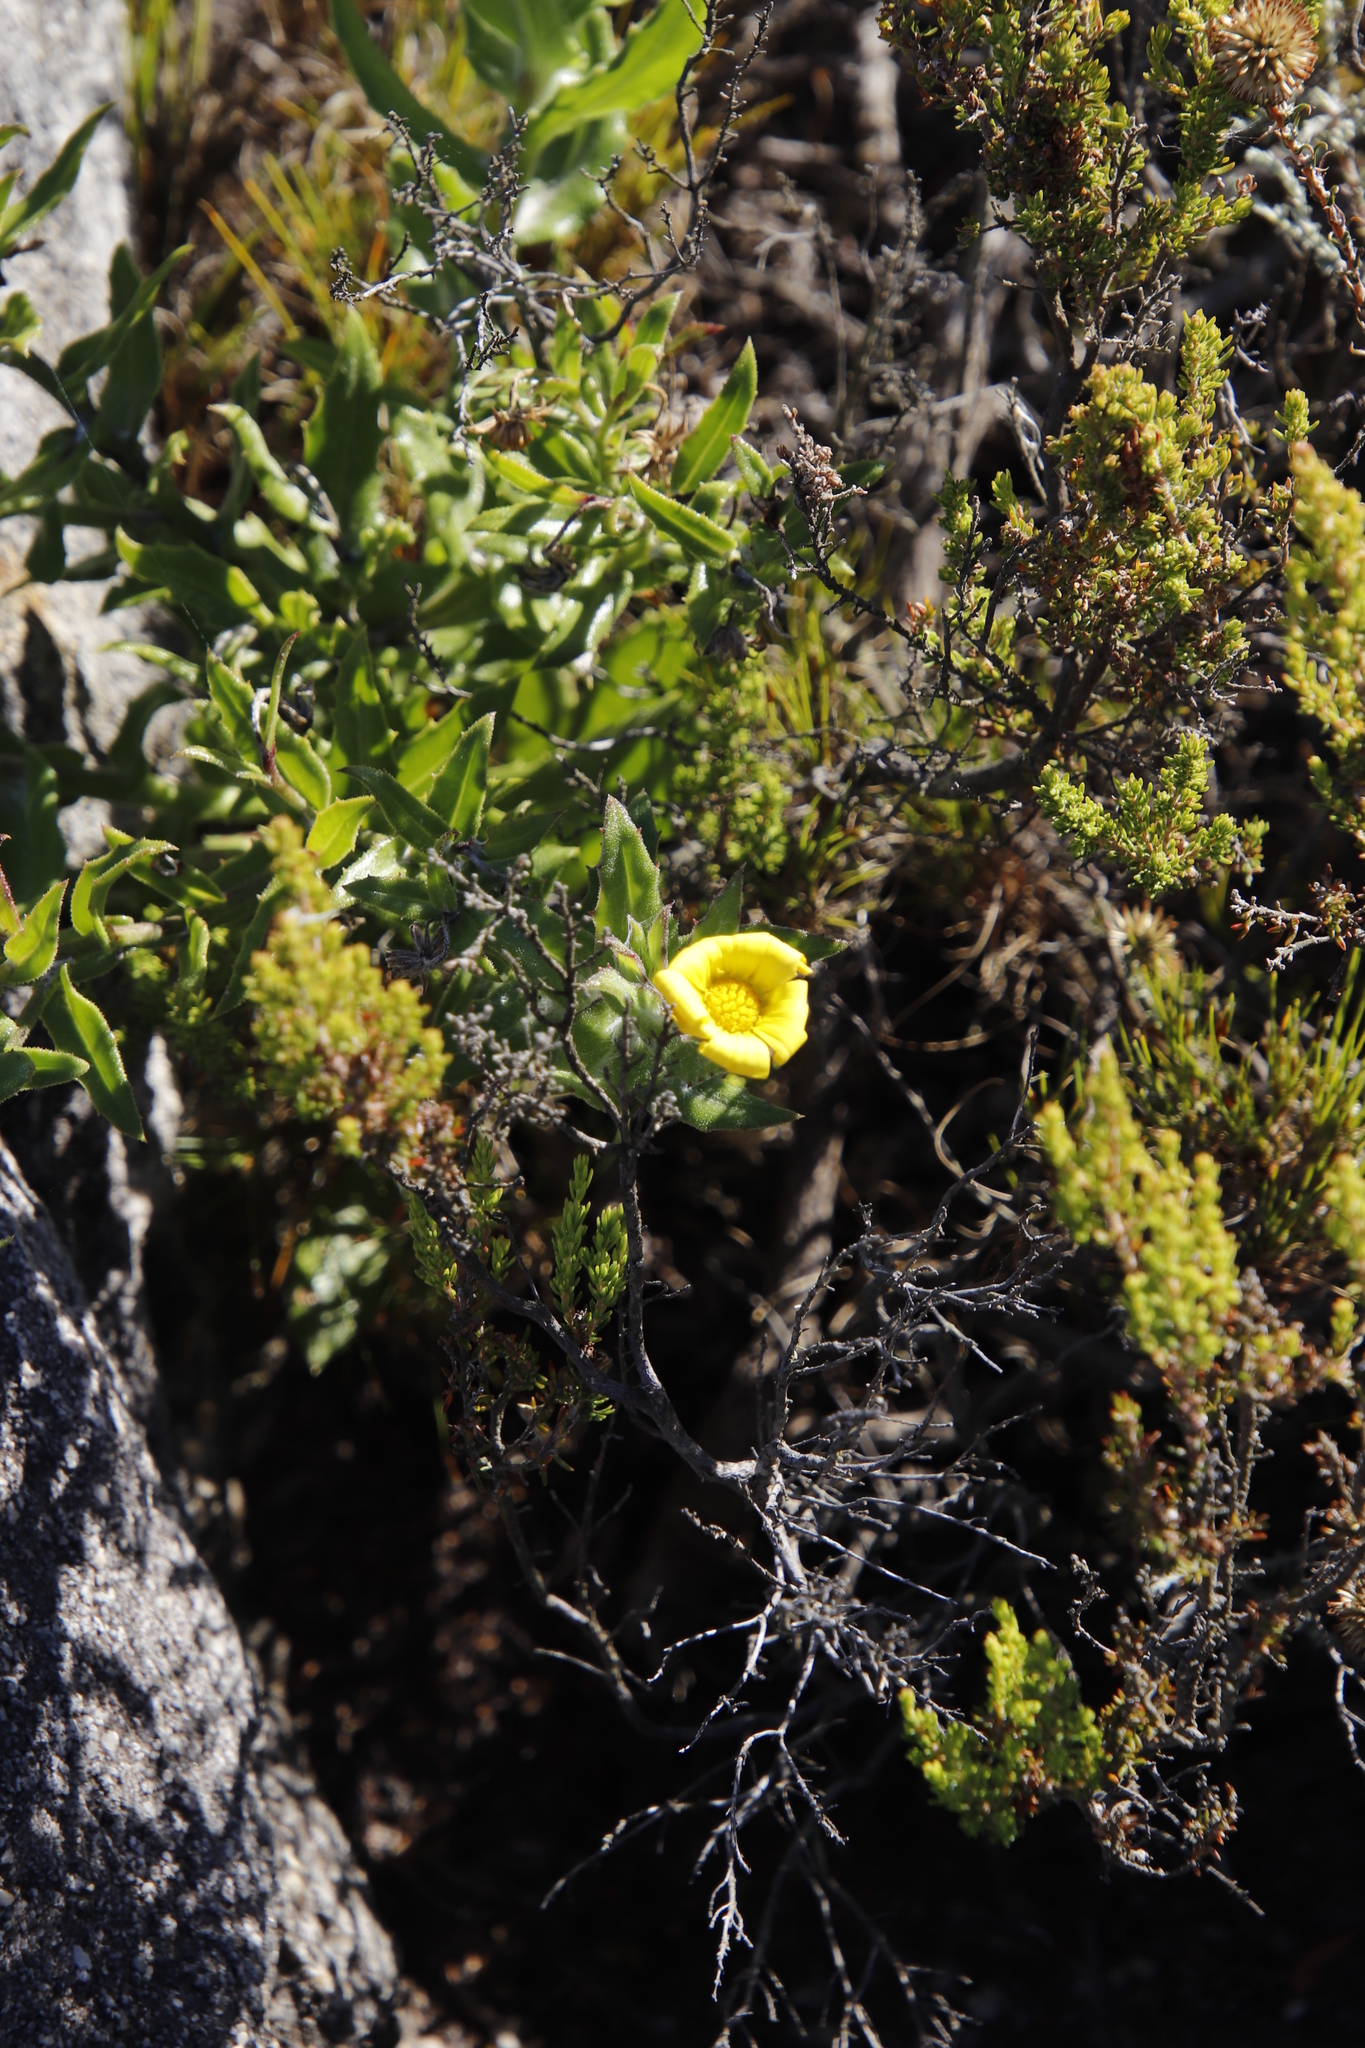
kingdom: Plantae
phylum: Tracheophyta
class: Magnoliopsida
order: Asterales
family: Asteraceae
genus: Osteospermum
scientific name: Osteospermum ilicifolium
